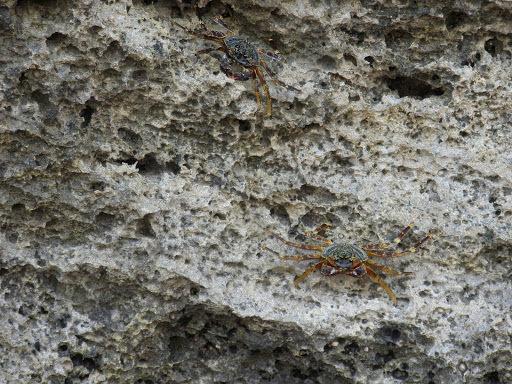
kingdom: Animalia
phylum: Arthropoda
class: Malacostraca
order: Decapoda
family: Grapsidae
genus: Grapsus
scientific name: Grapsus tenuicrustatus
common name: Natal lightfoot crab
